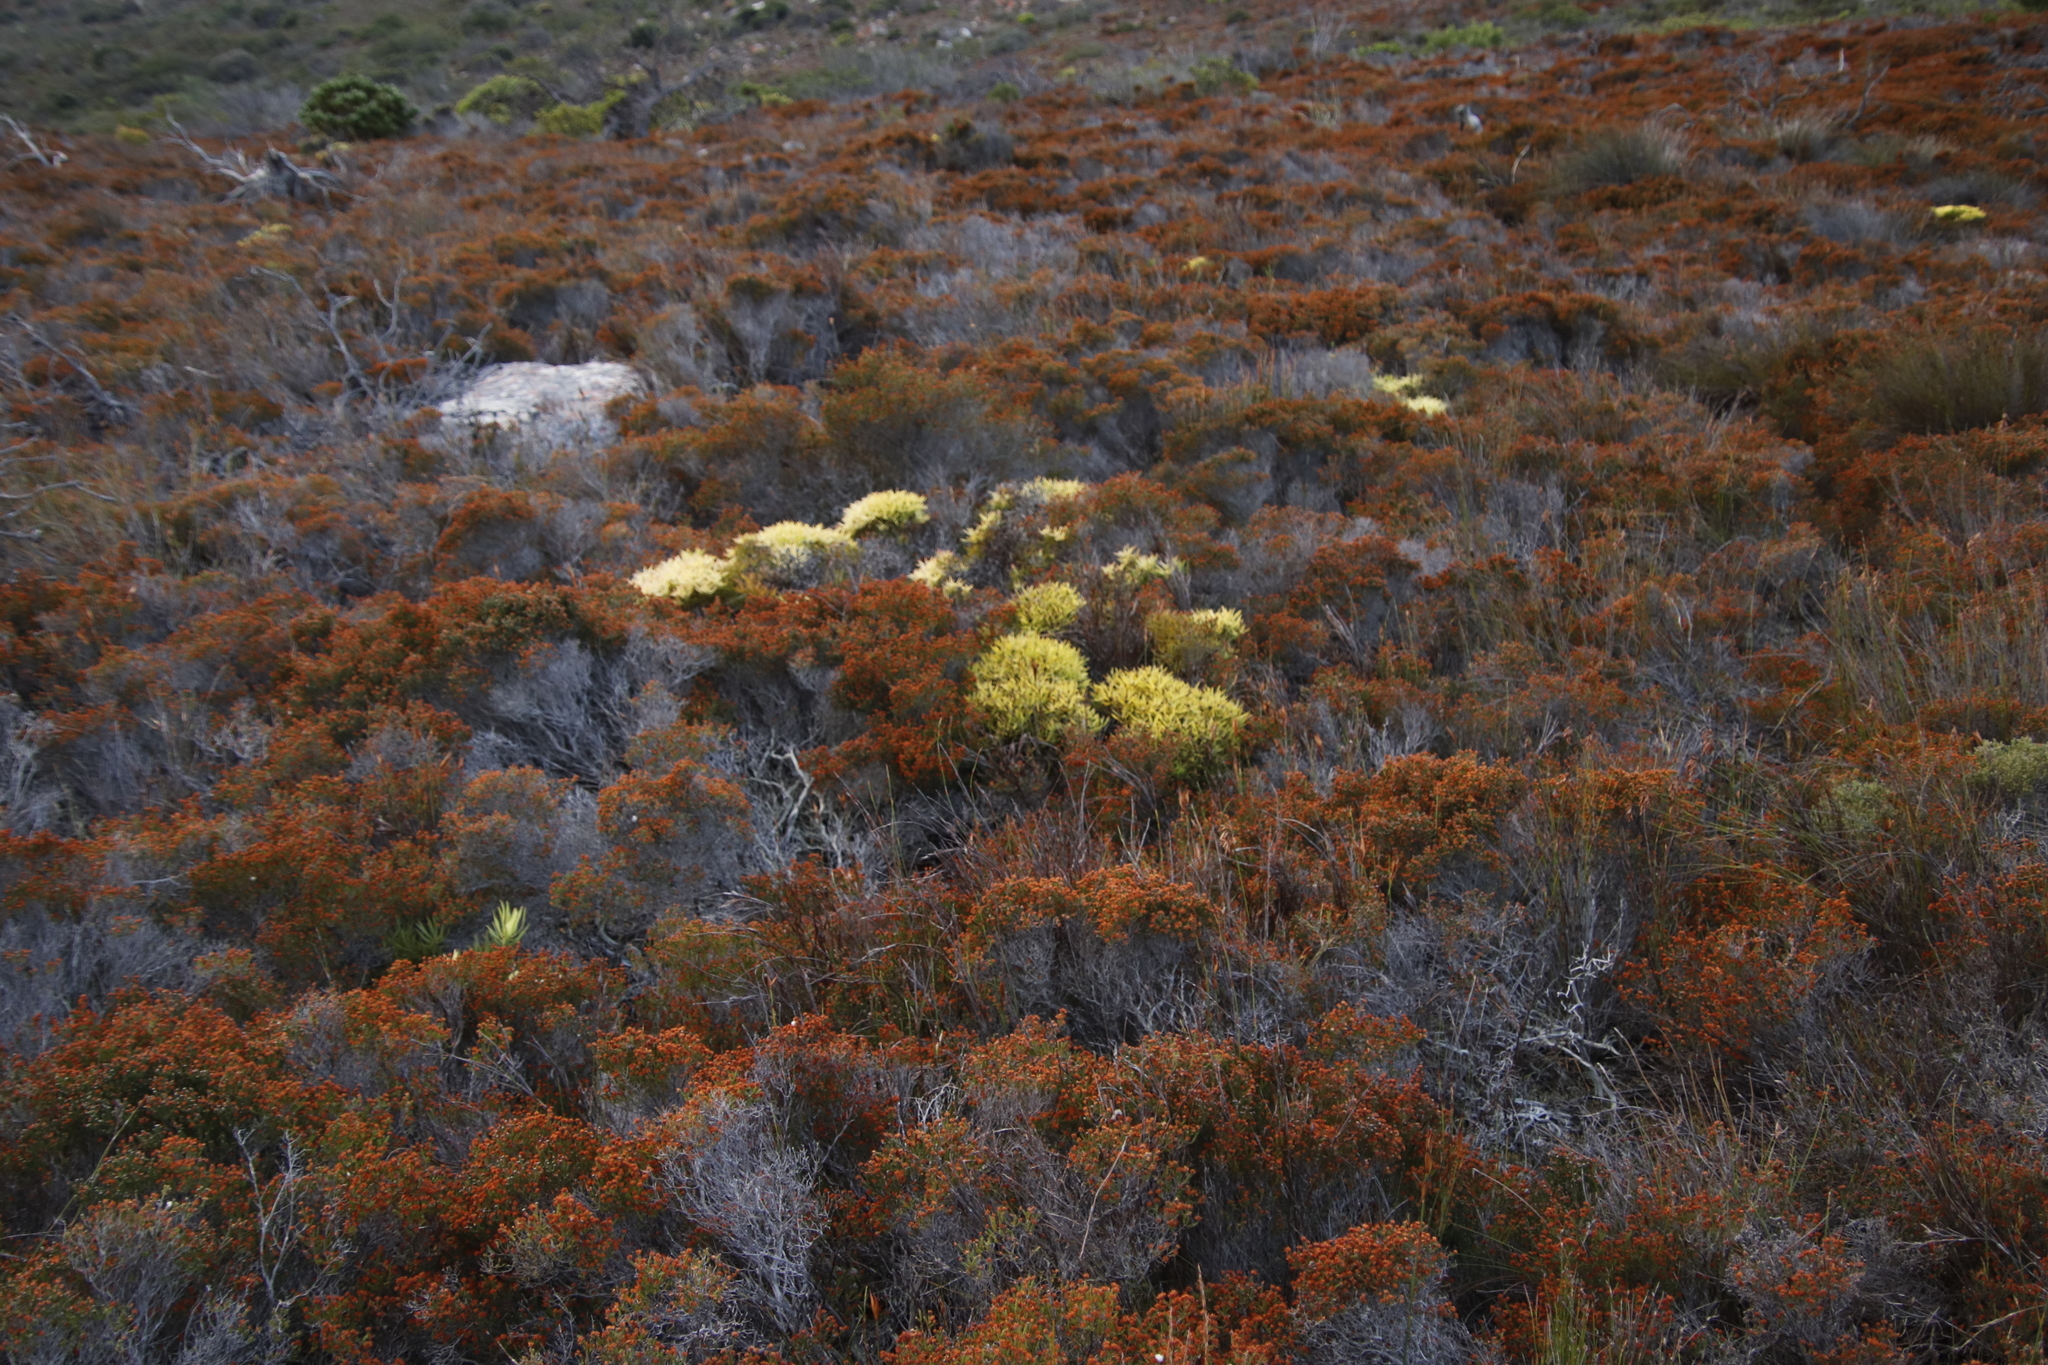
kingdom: Plantae
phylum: Tracheophyta
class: Magnoliopsida
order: Proteales
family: Proteaceae
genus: Leucadendron
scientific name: Leucadendron salignum
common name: Common sunshine conebush
